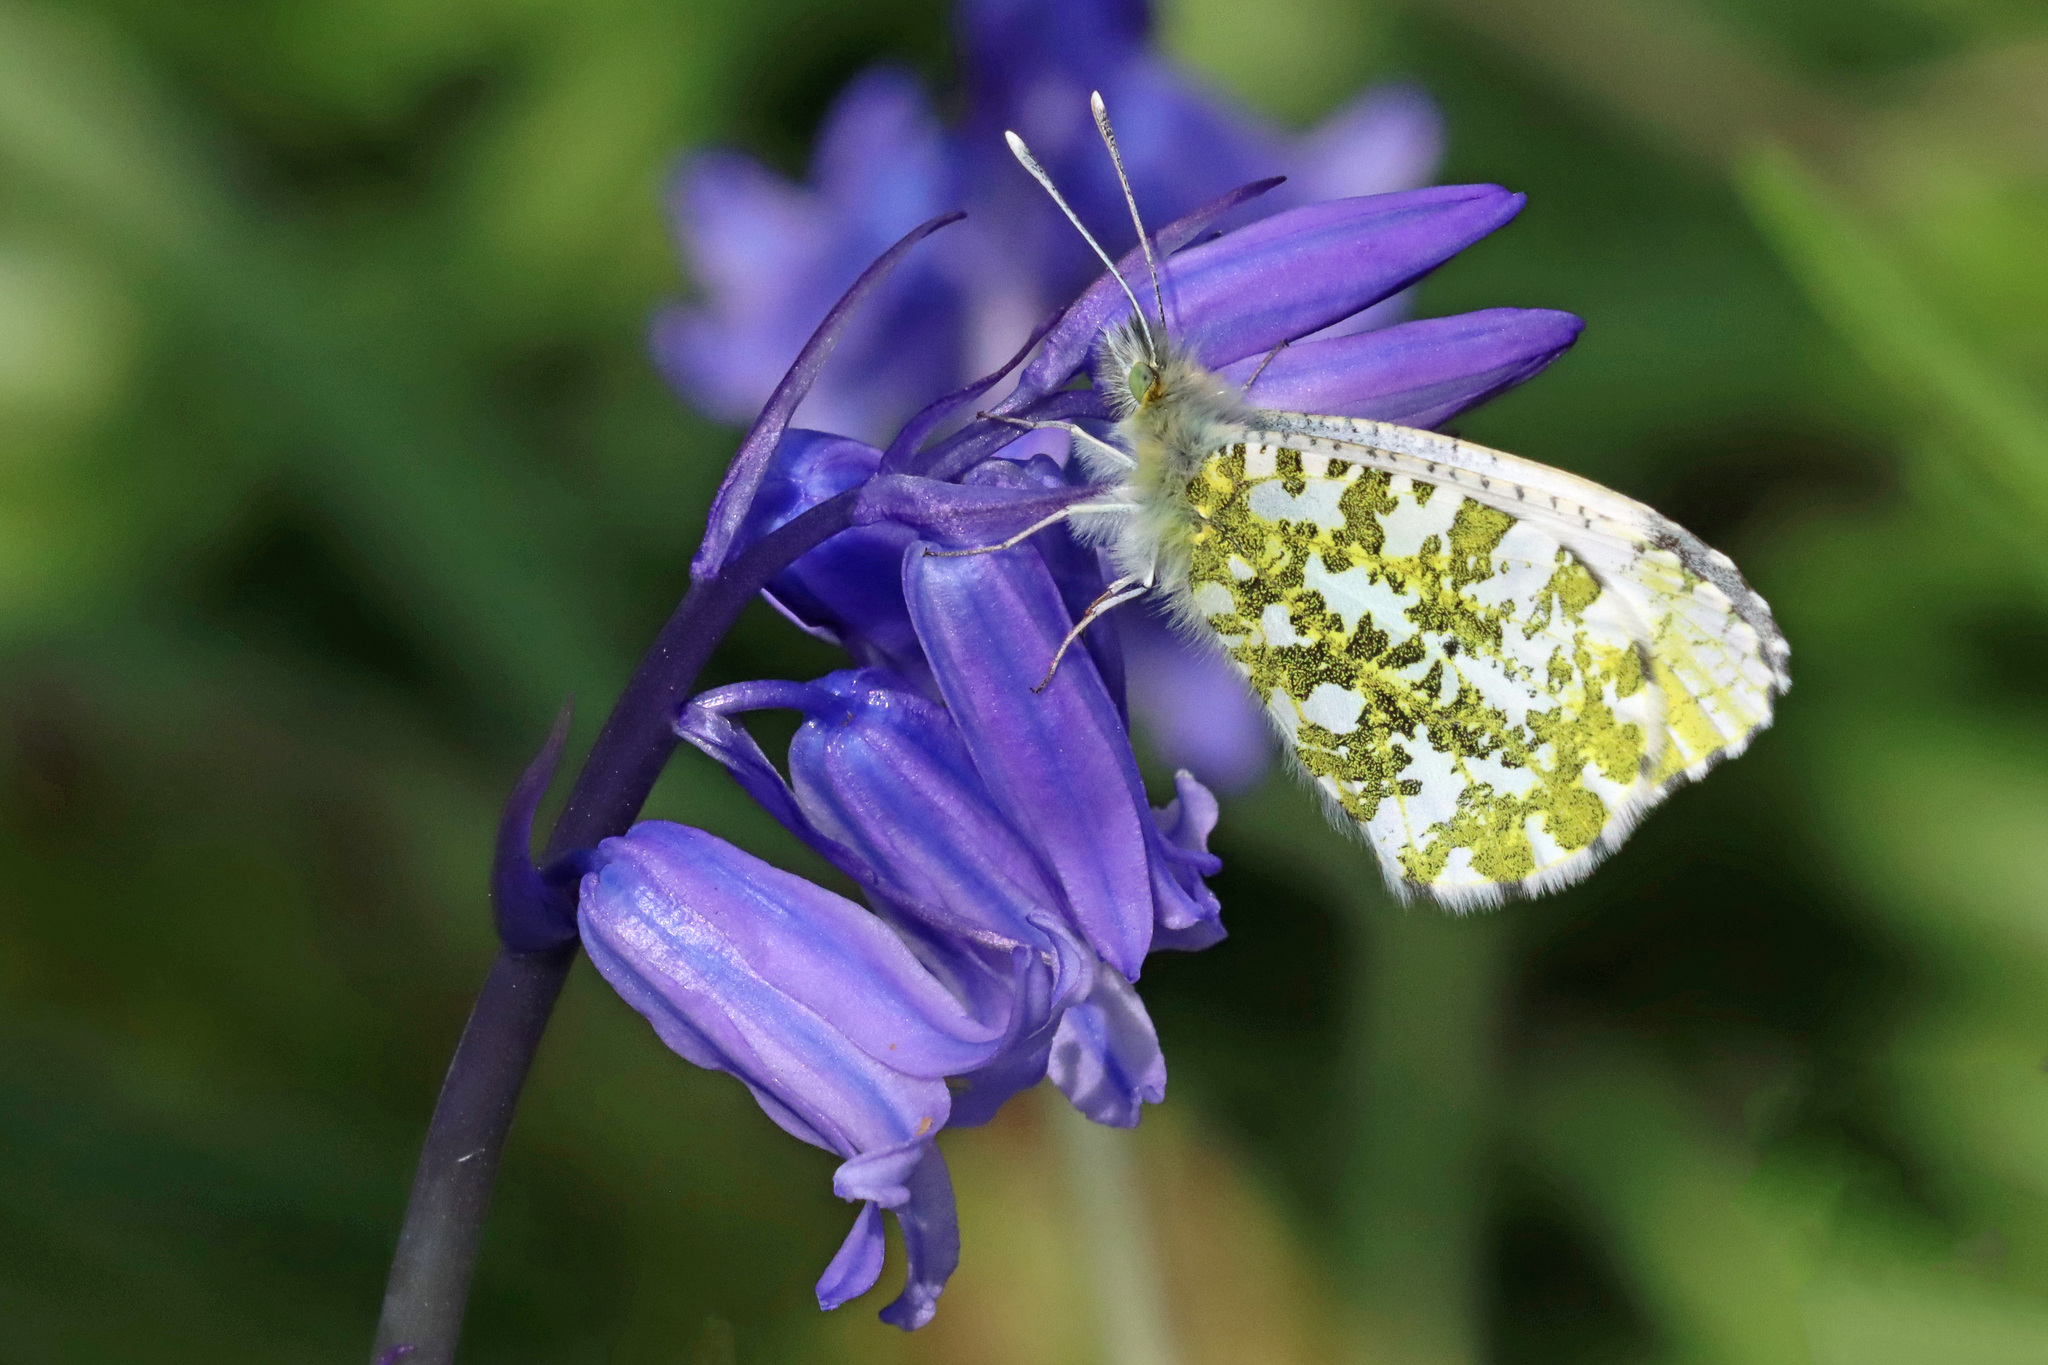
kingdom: Animalia
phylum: Arthropoda
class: Insecta
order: Lepidoptera
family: Pieridae
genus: Anthocharis
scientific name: Anthocharis cardamines
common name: Orange-tip
